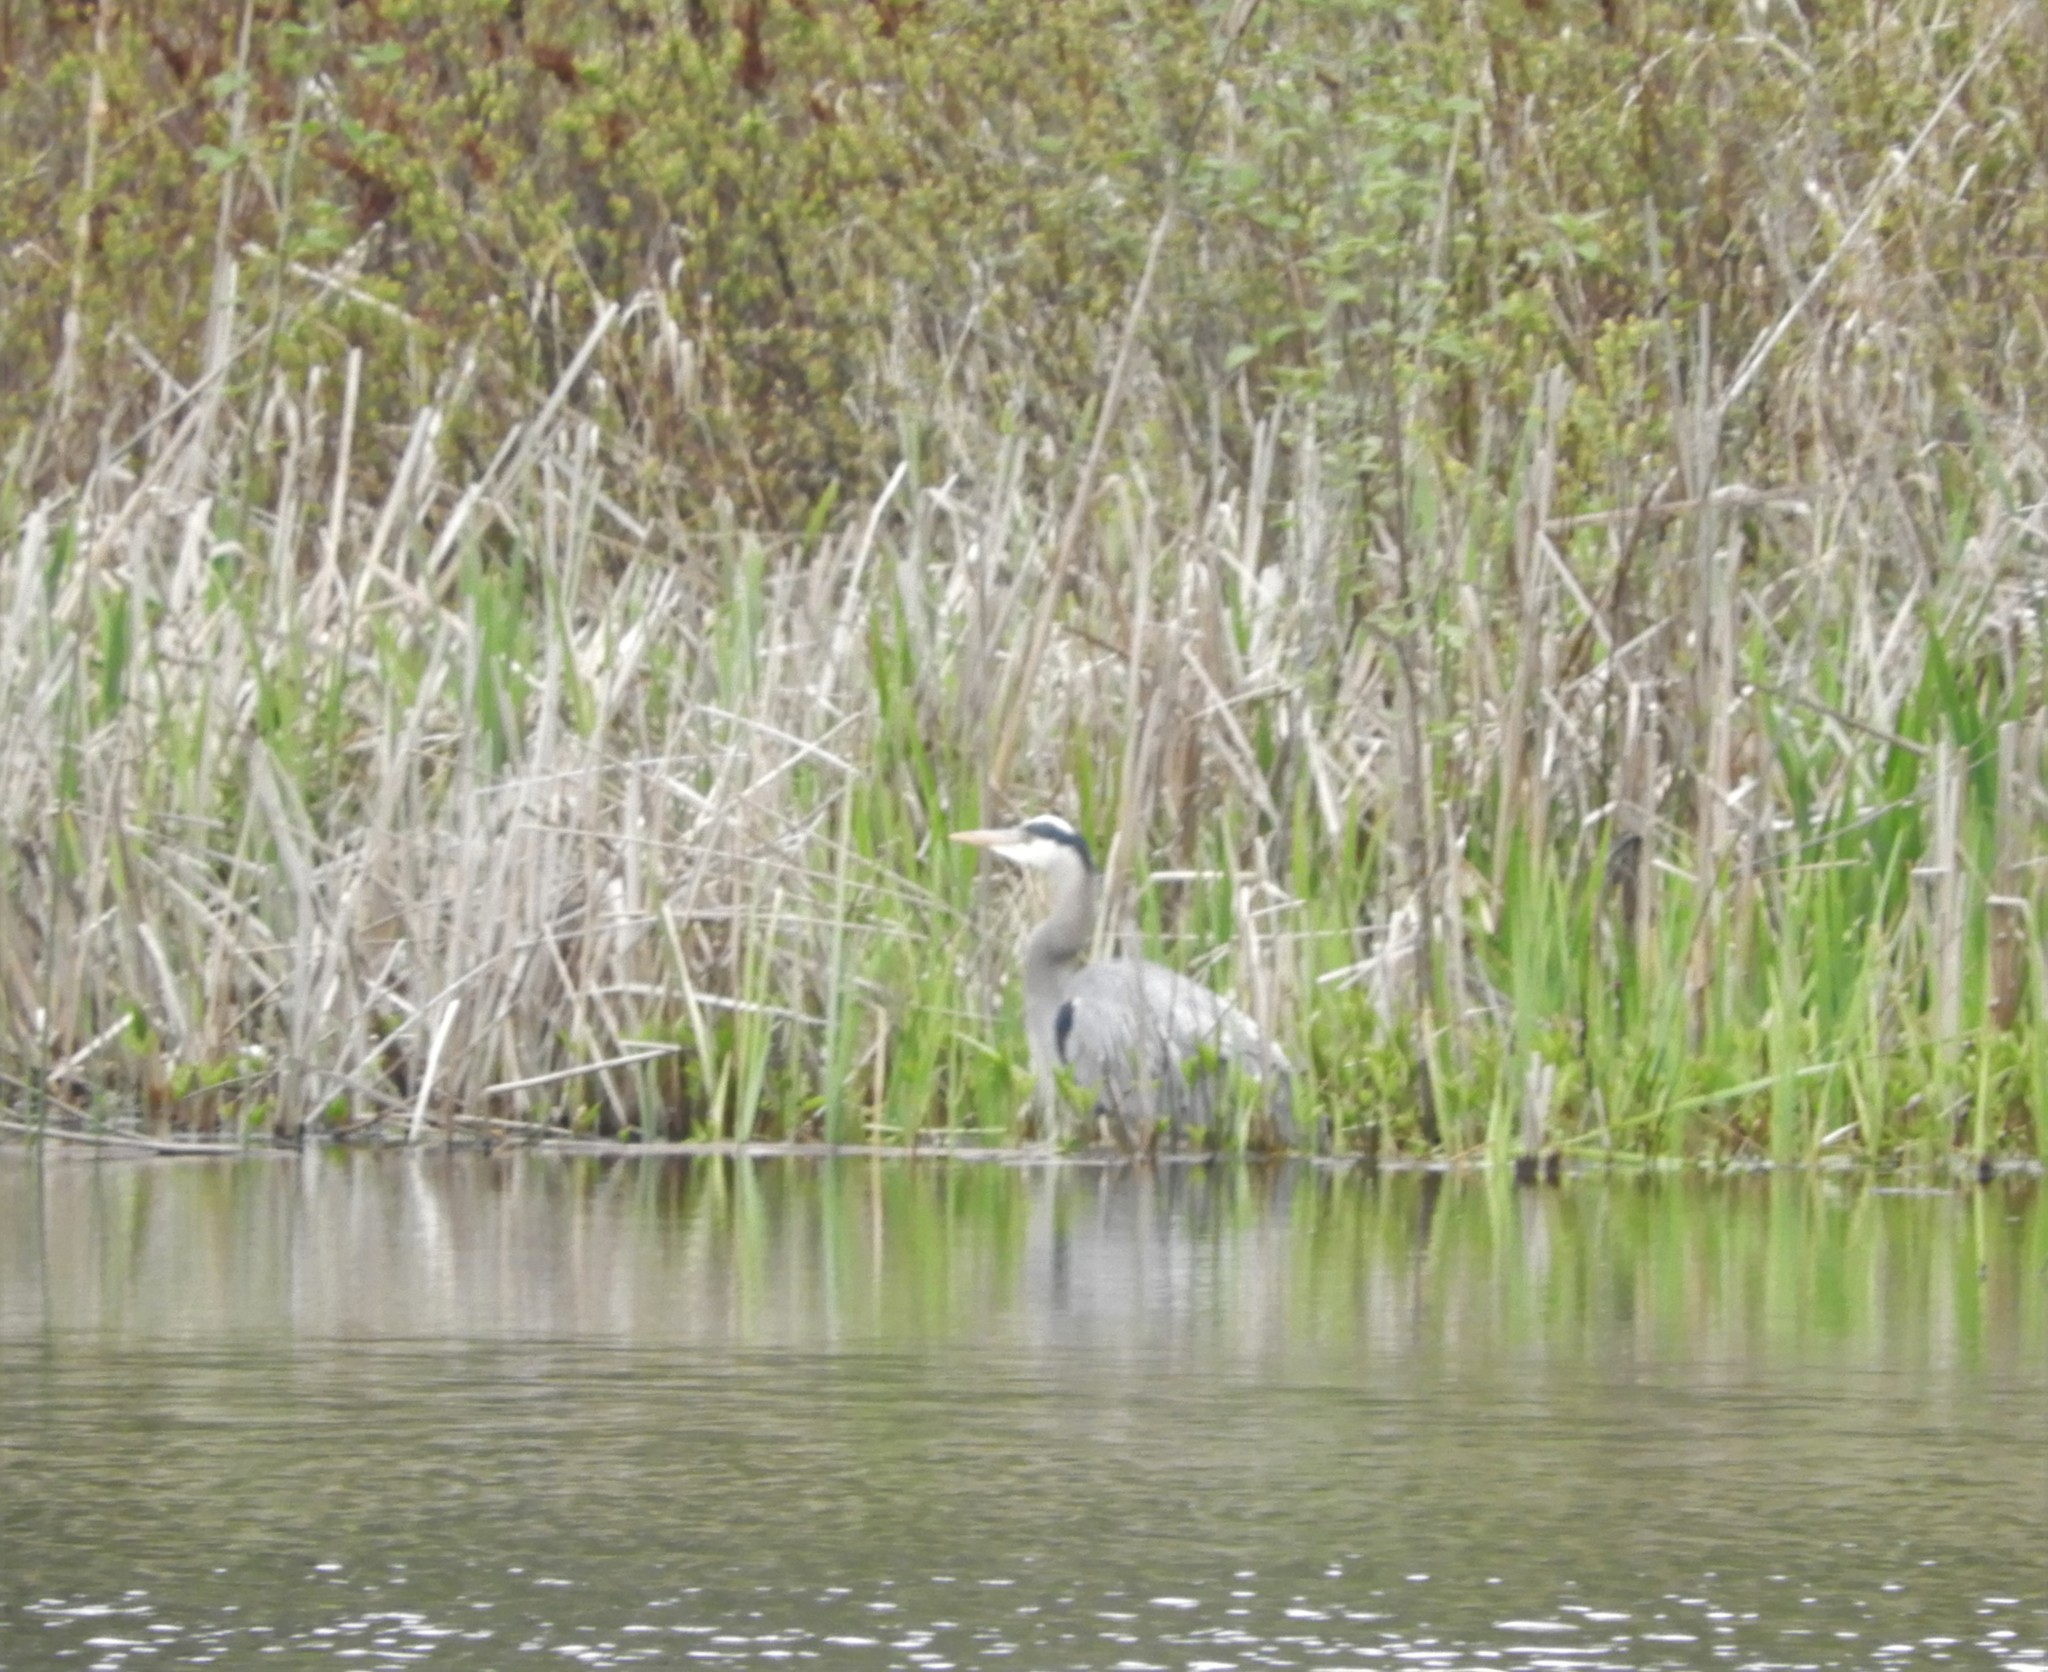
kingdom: Animalia
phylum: Chordata
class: Aves
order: Pelecaniformes
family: Ardeidae
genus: Ardea
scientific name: Ardea herodias
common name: Great blue heron
